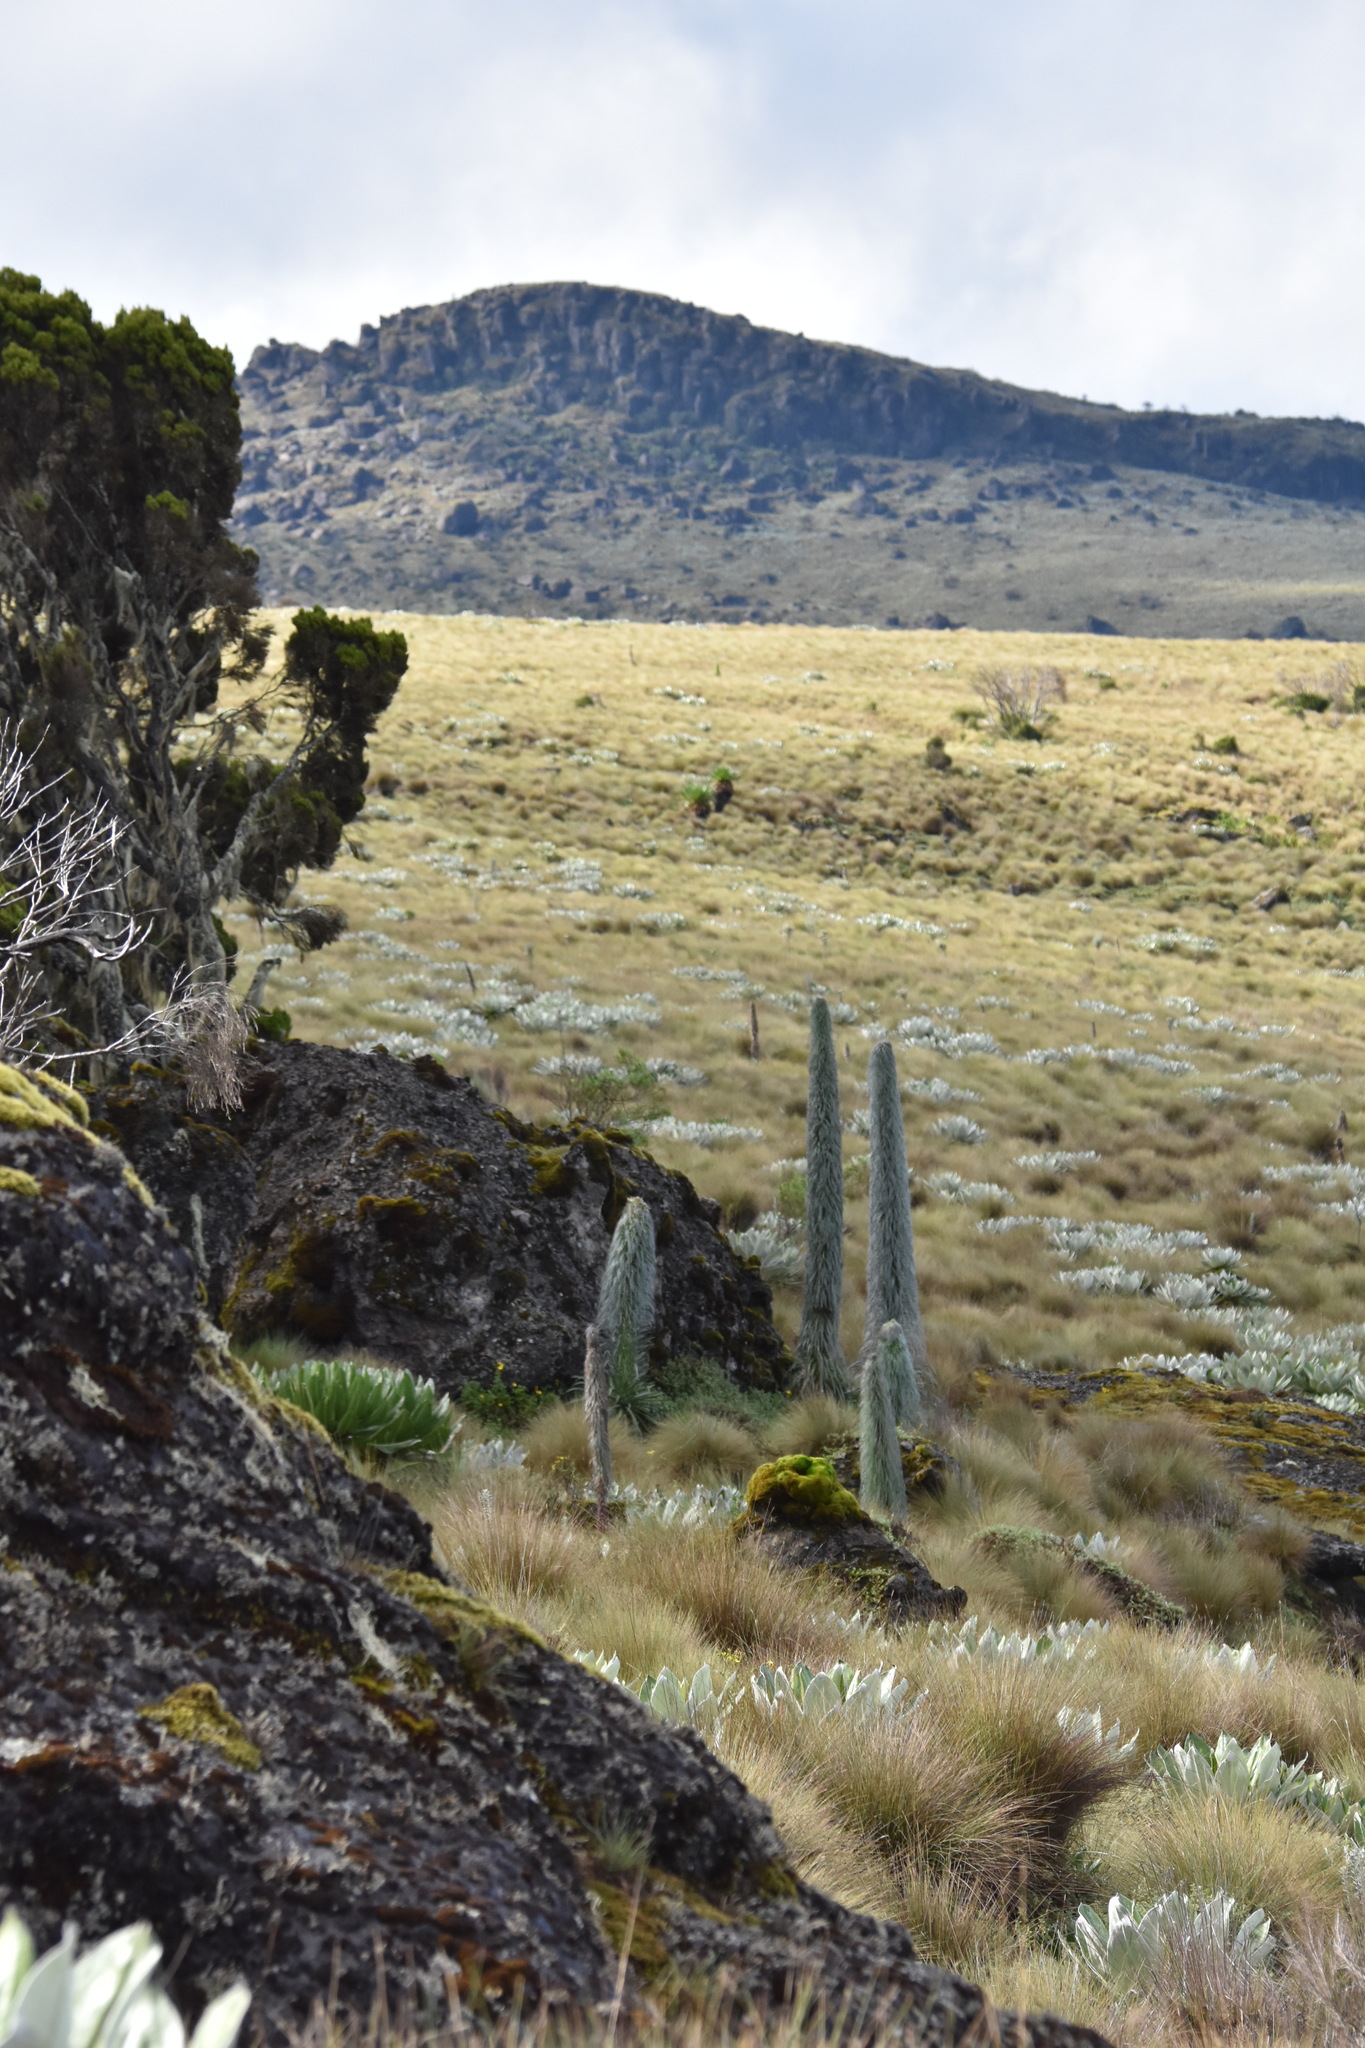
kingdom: Plantae
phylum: Tracheophyta
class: Magnoliopsida
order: Asterales
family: Asteraceae
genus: Dendrosenecio
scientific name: Dendrosenecio keniensis
